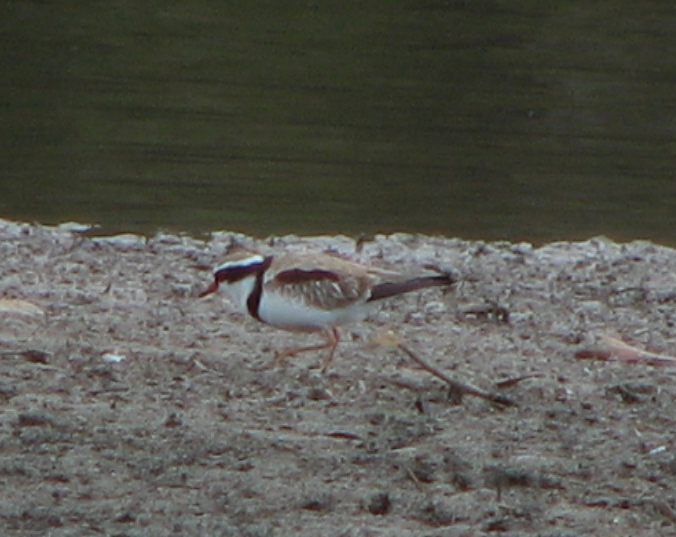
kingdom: Animalia
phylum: Chordata
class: Aves
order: Charadriiformes
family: Charadriidae
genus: Elseyornis
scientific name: Elseyornis melanops
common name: Black-fronted dotterel
